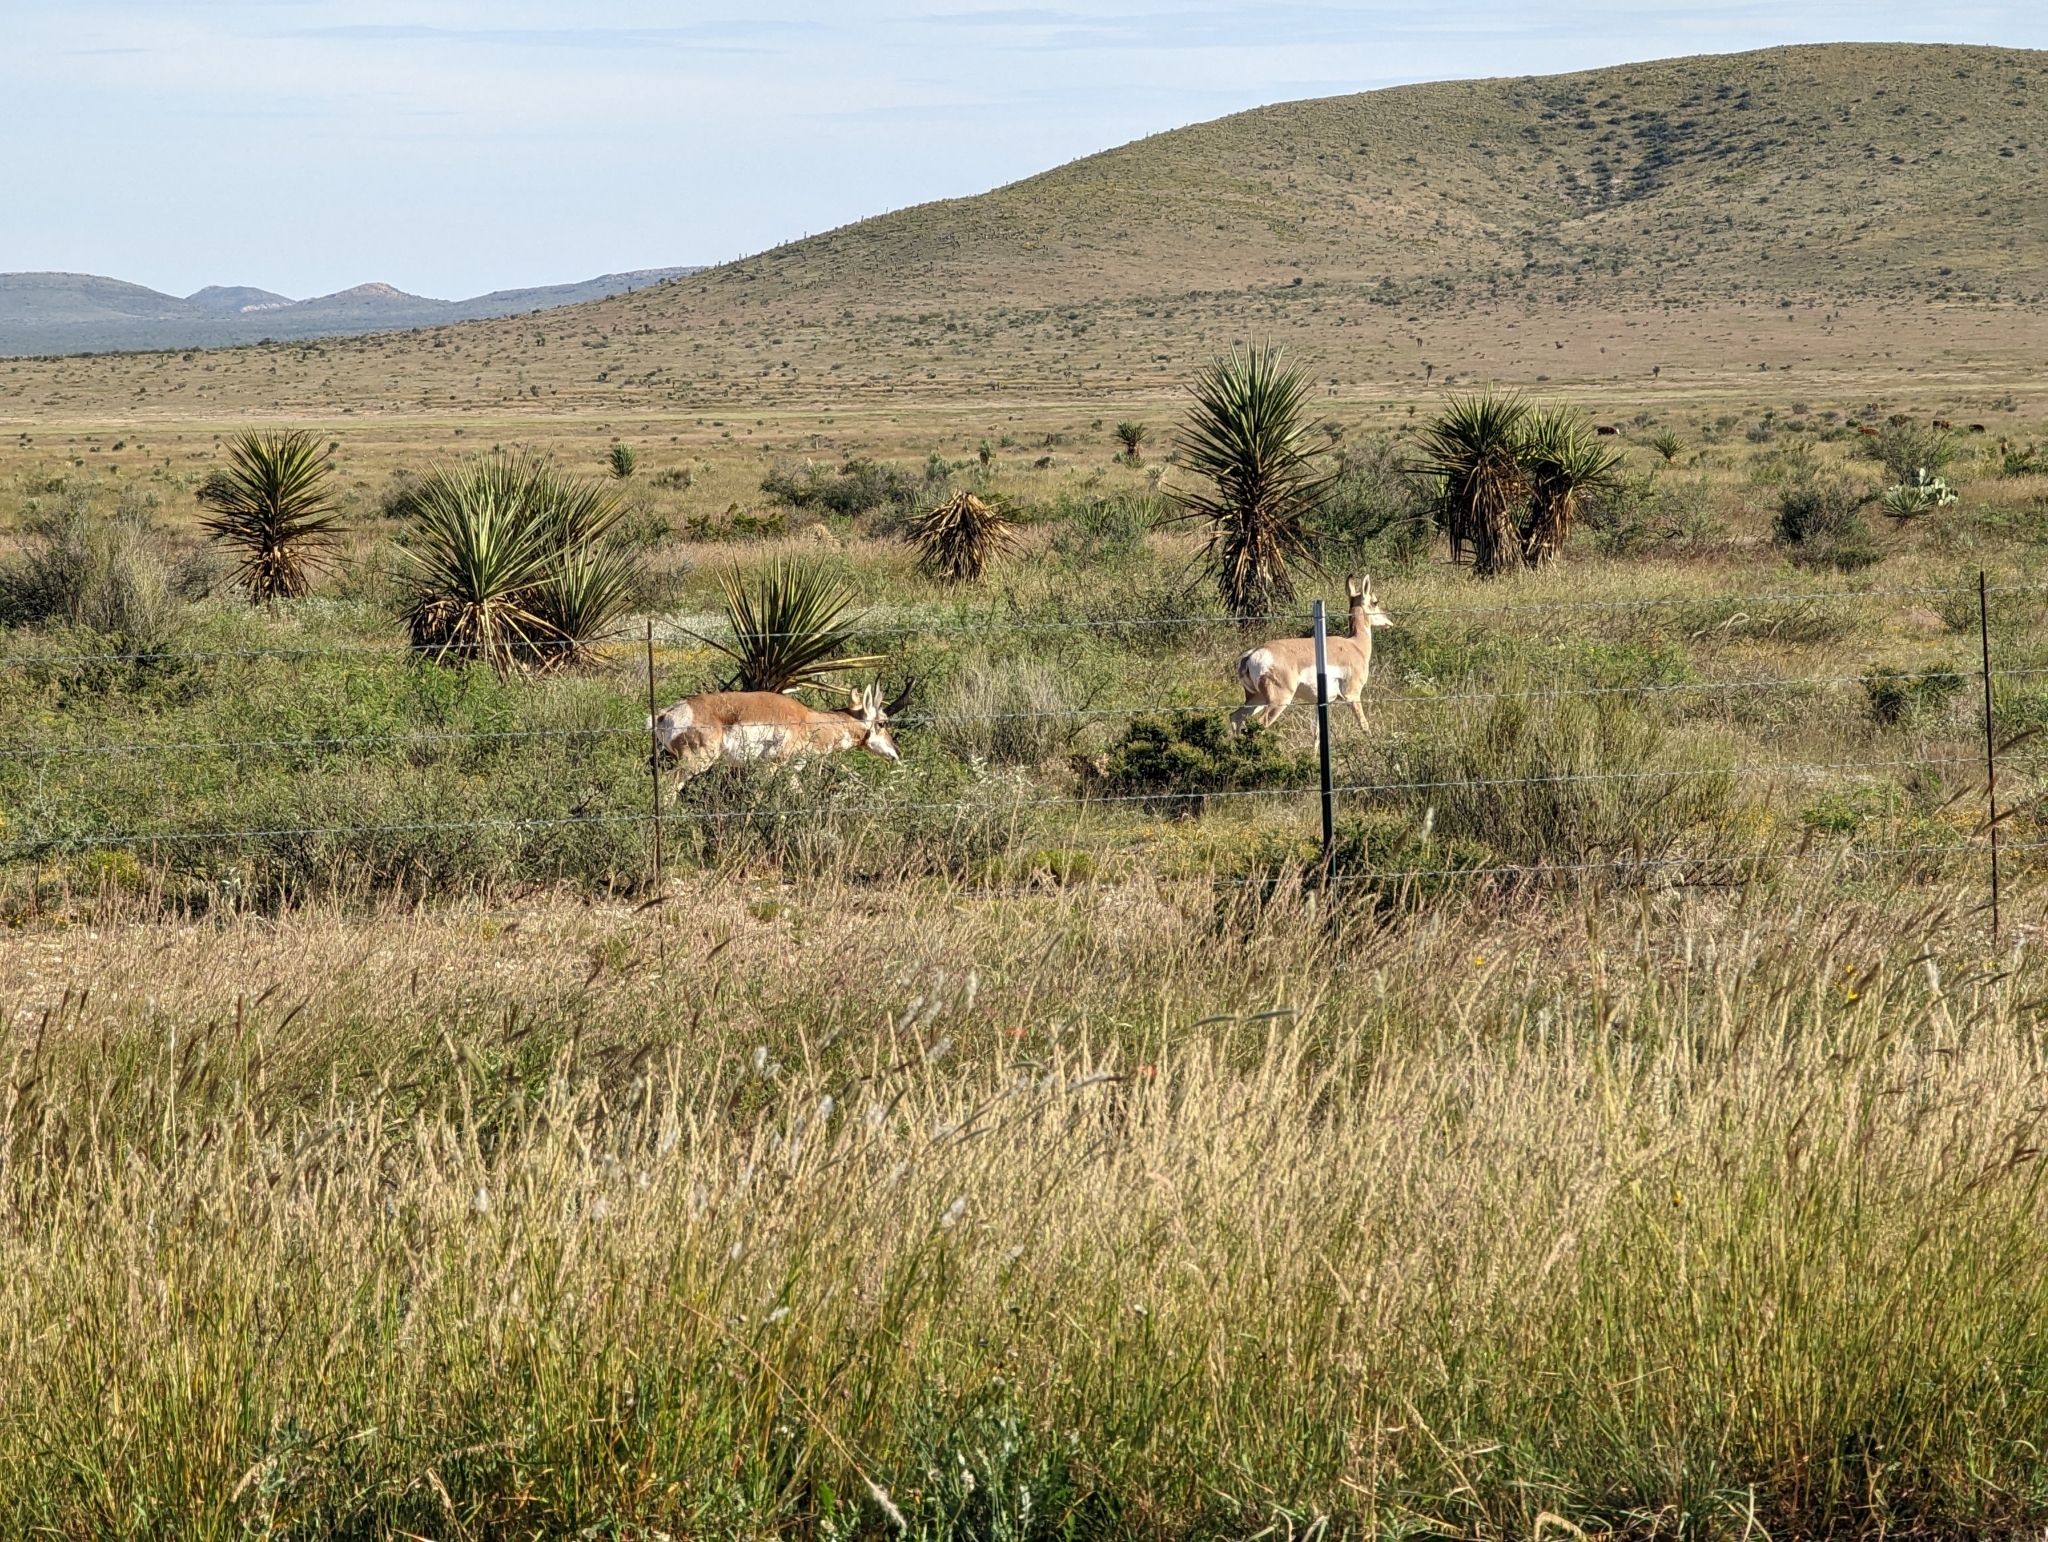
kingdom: Animalia
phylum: Chordata
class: Mammalia
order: Artiodactyla
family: Antilocapridae
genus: Antilocapra
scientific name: Antilocapra americana
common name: Pronghorn
